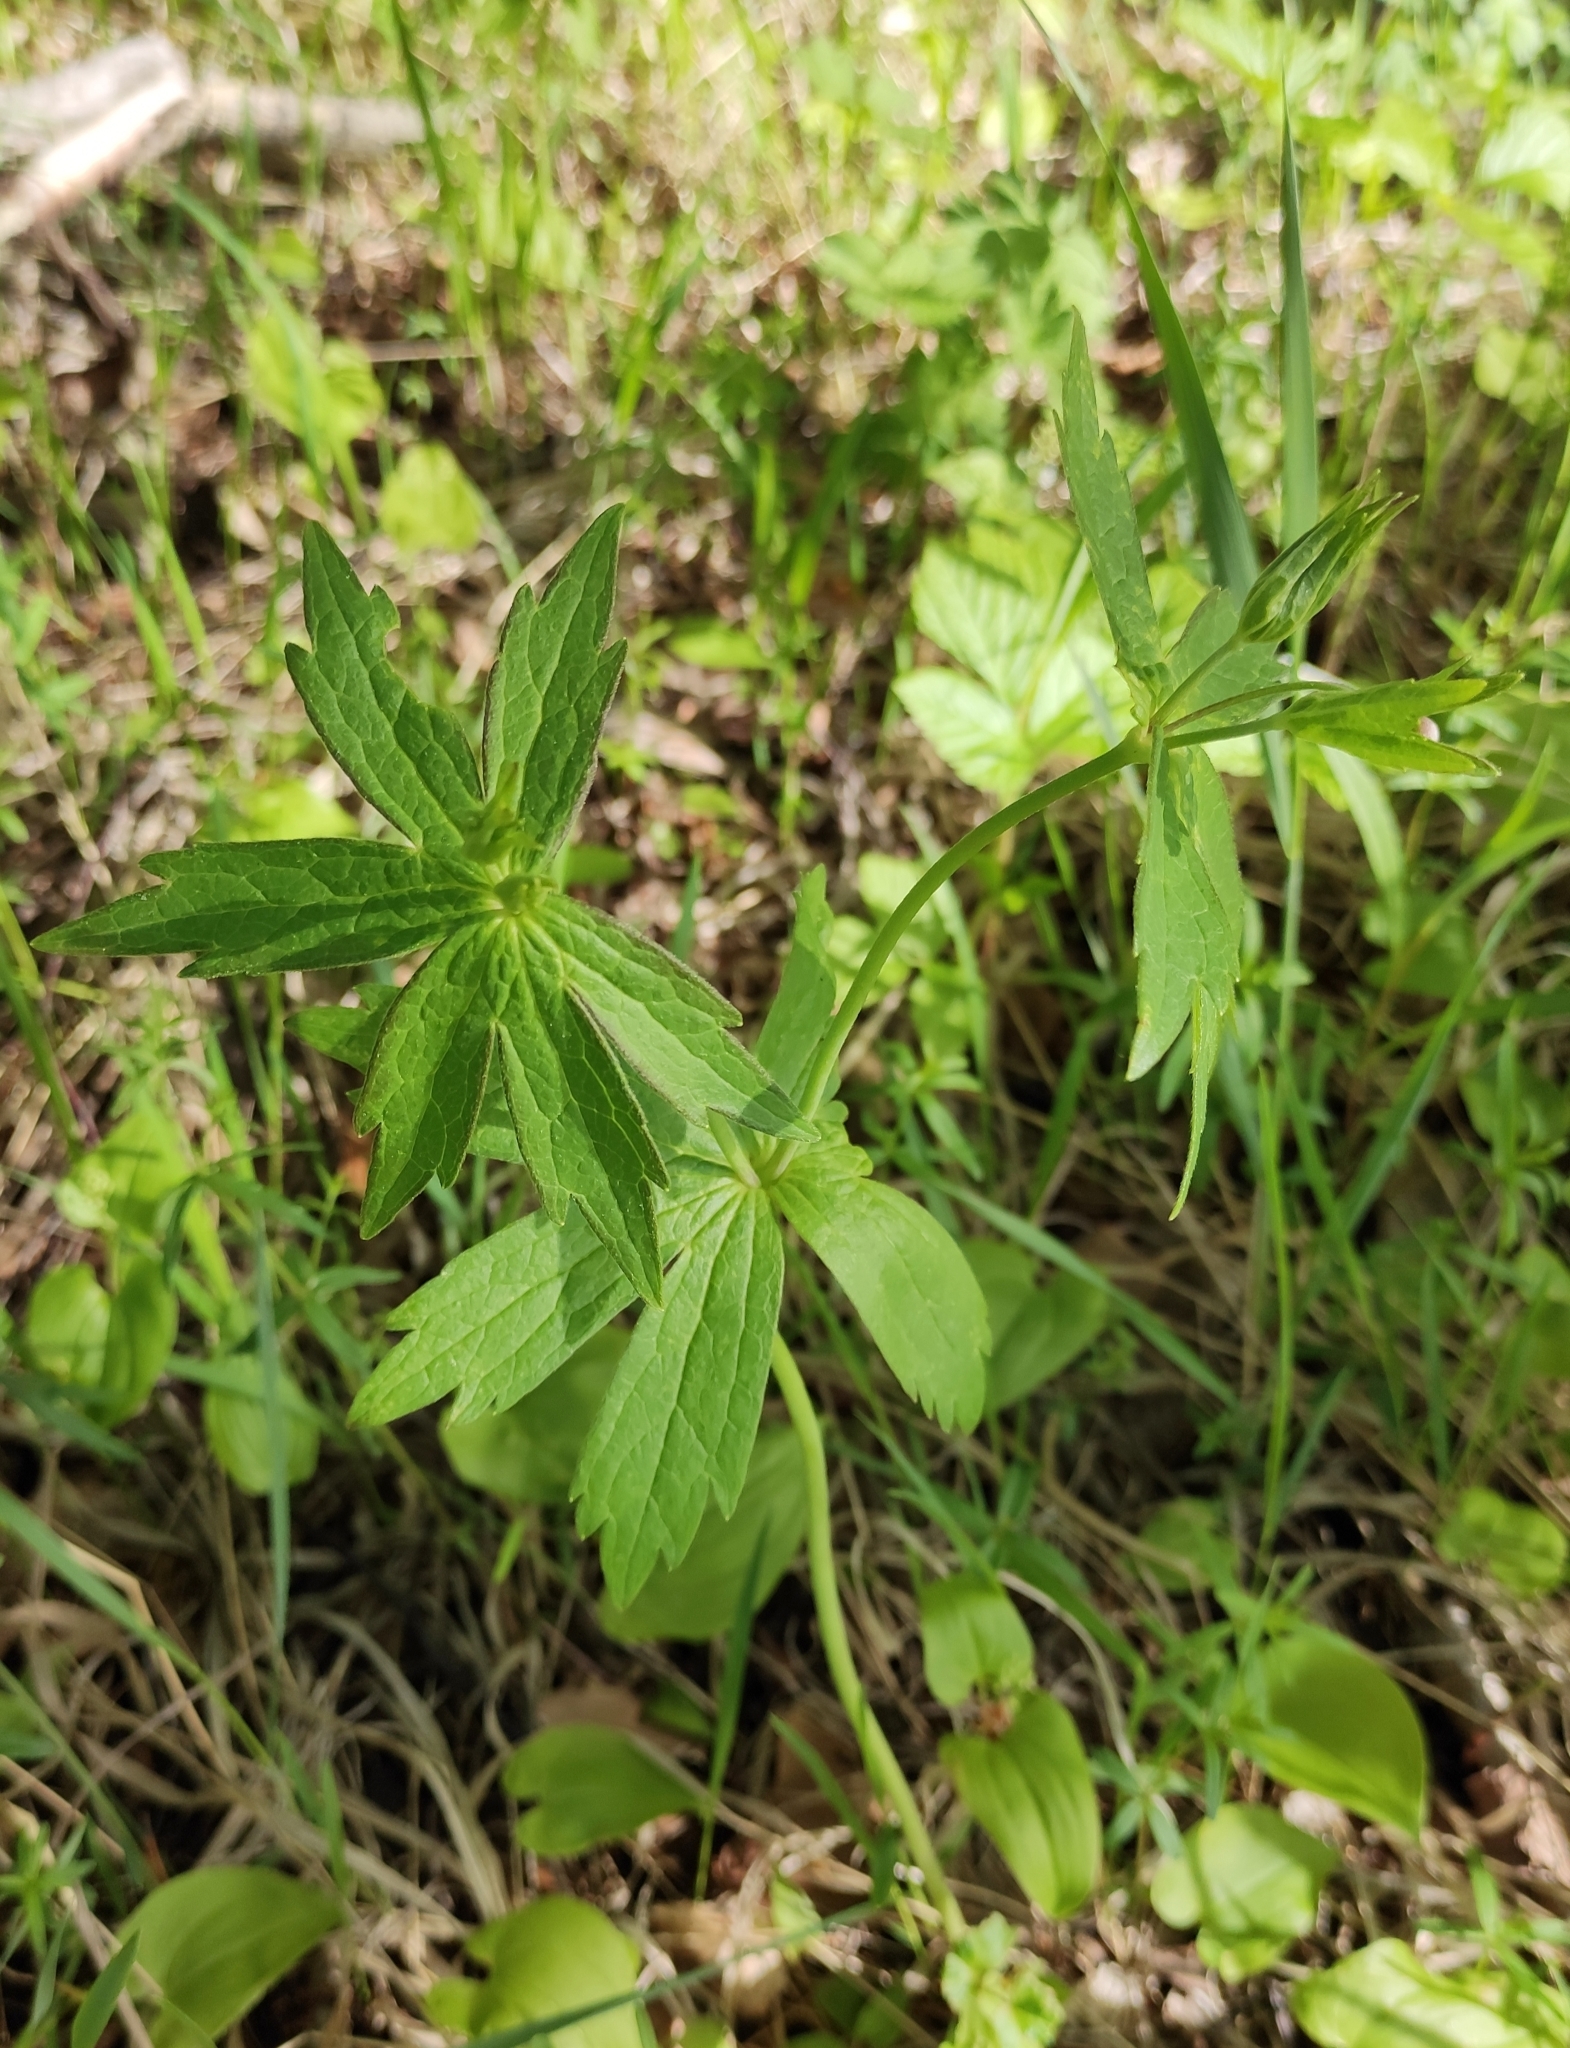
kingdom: Plantae
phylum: Tracheophyta
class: Magnoliopsida
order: Ranunculales
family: Ranunculaceae
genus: Anemonastrum
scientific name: Anemonastrum dichotomum
